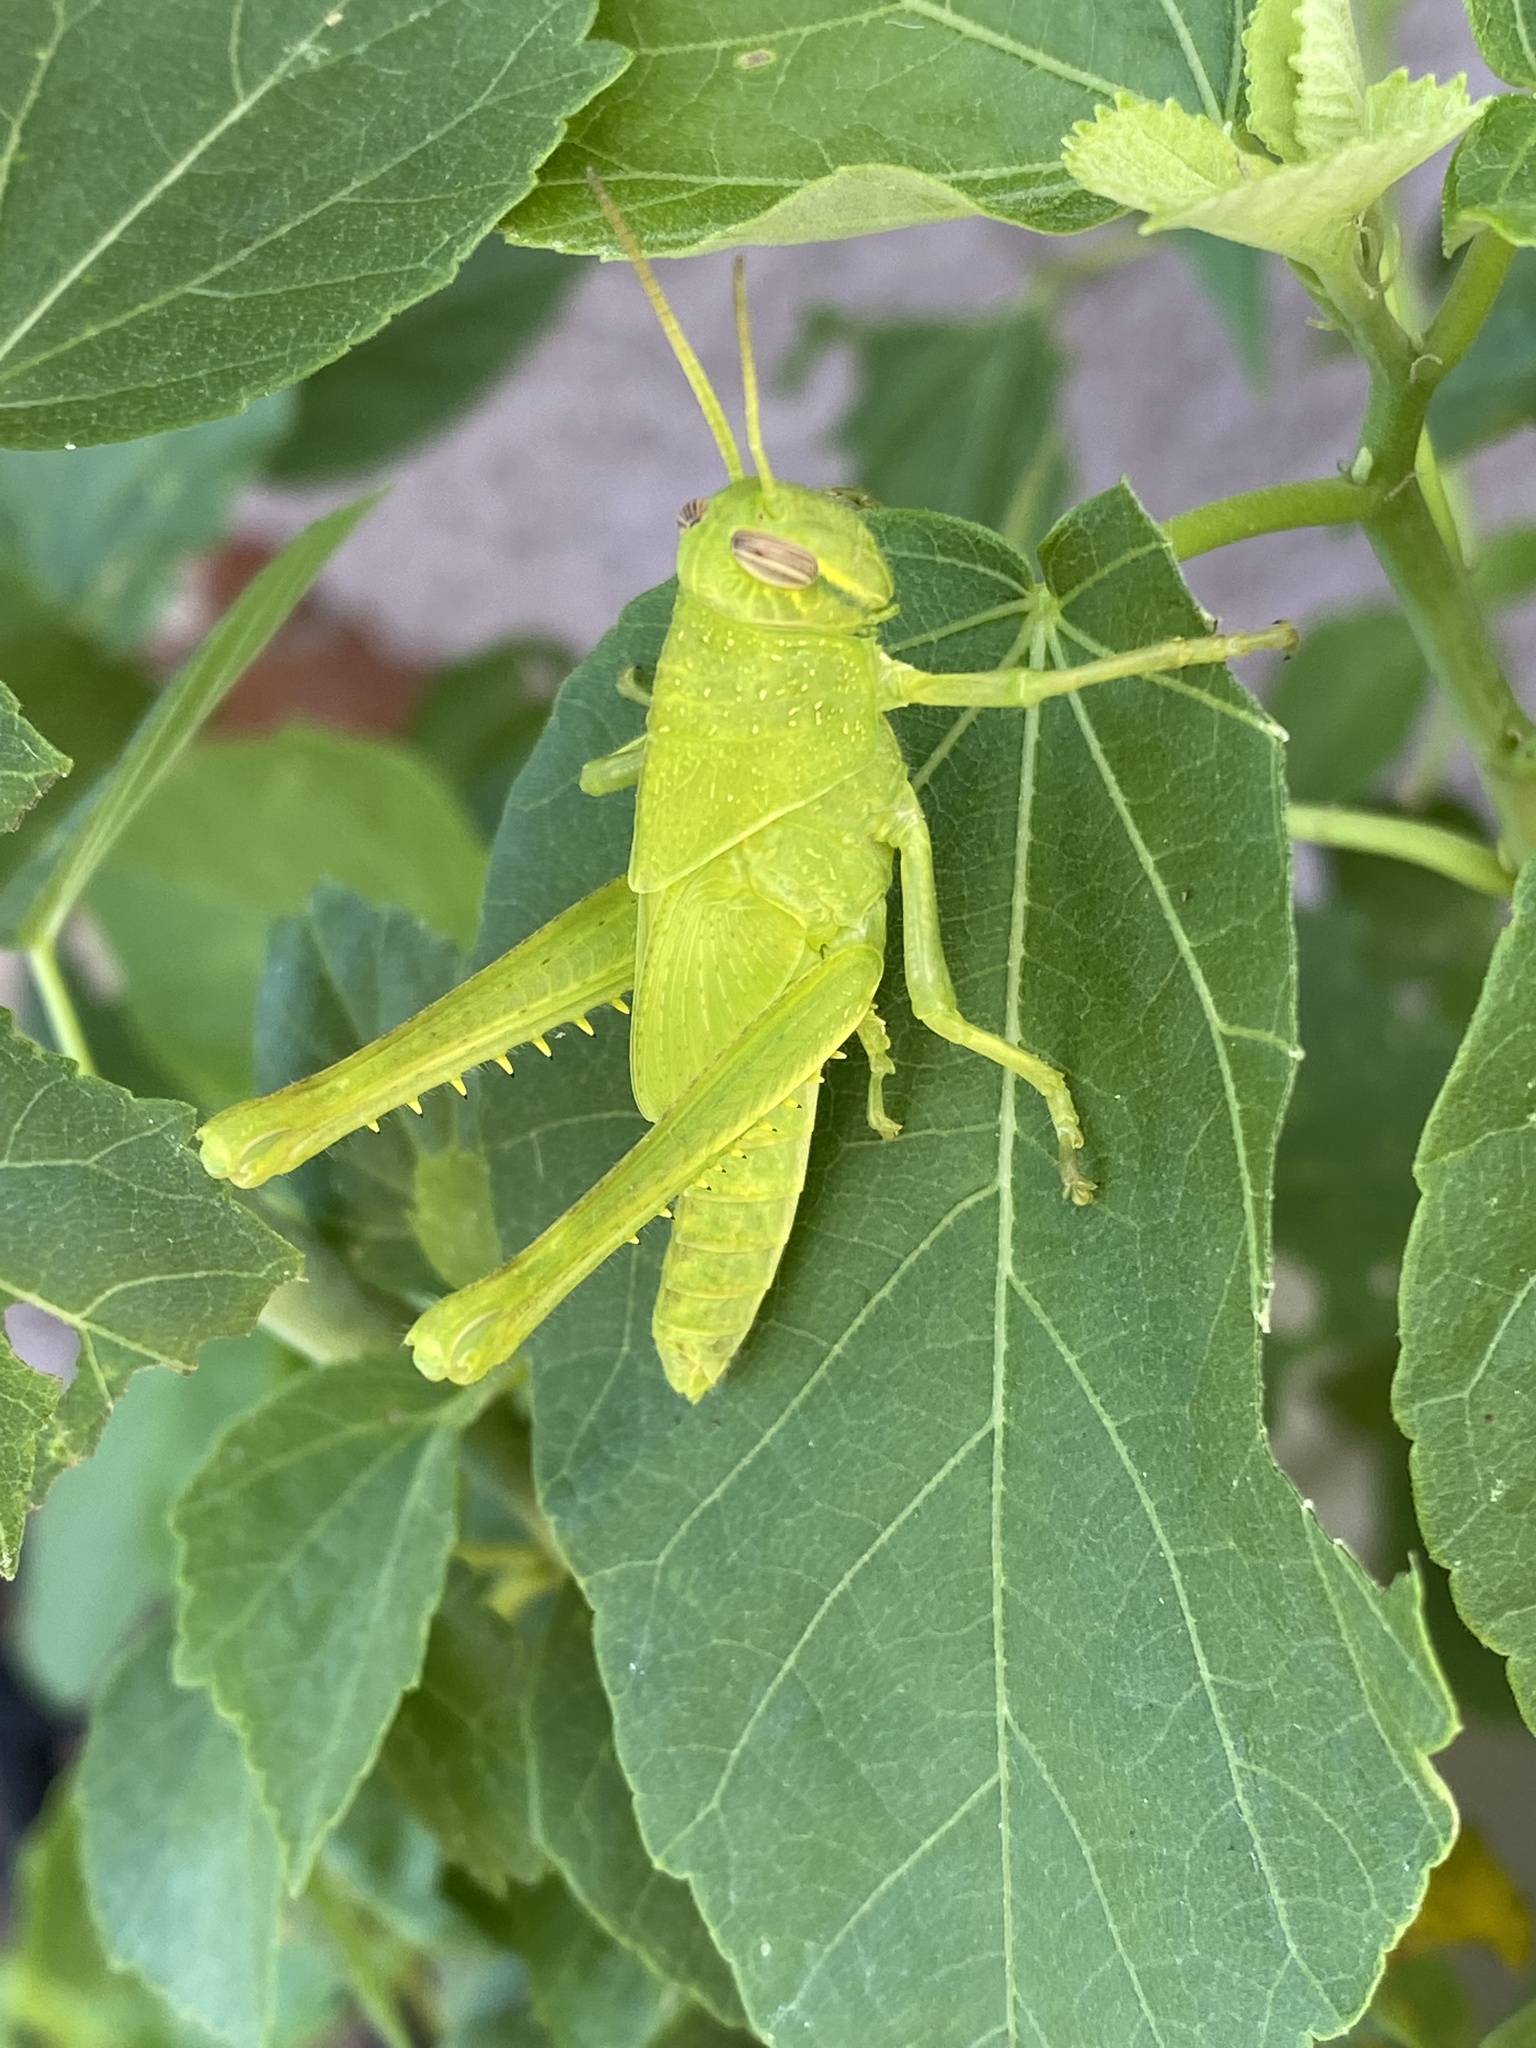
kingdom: Animalia
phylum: Arthropoda
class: Insecta
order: Orthoptera
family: Acrididae
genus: Schistocerca
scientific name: Schistocerca nitens
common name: Vagrant grasshopper
